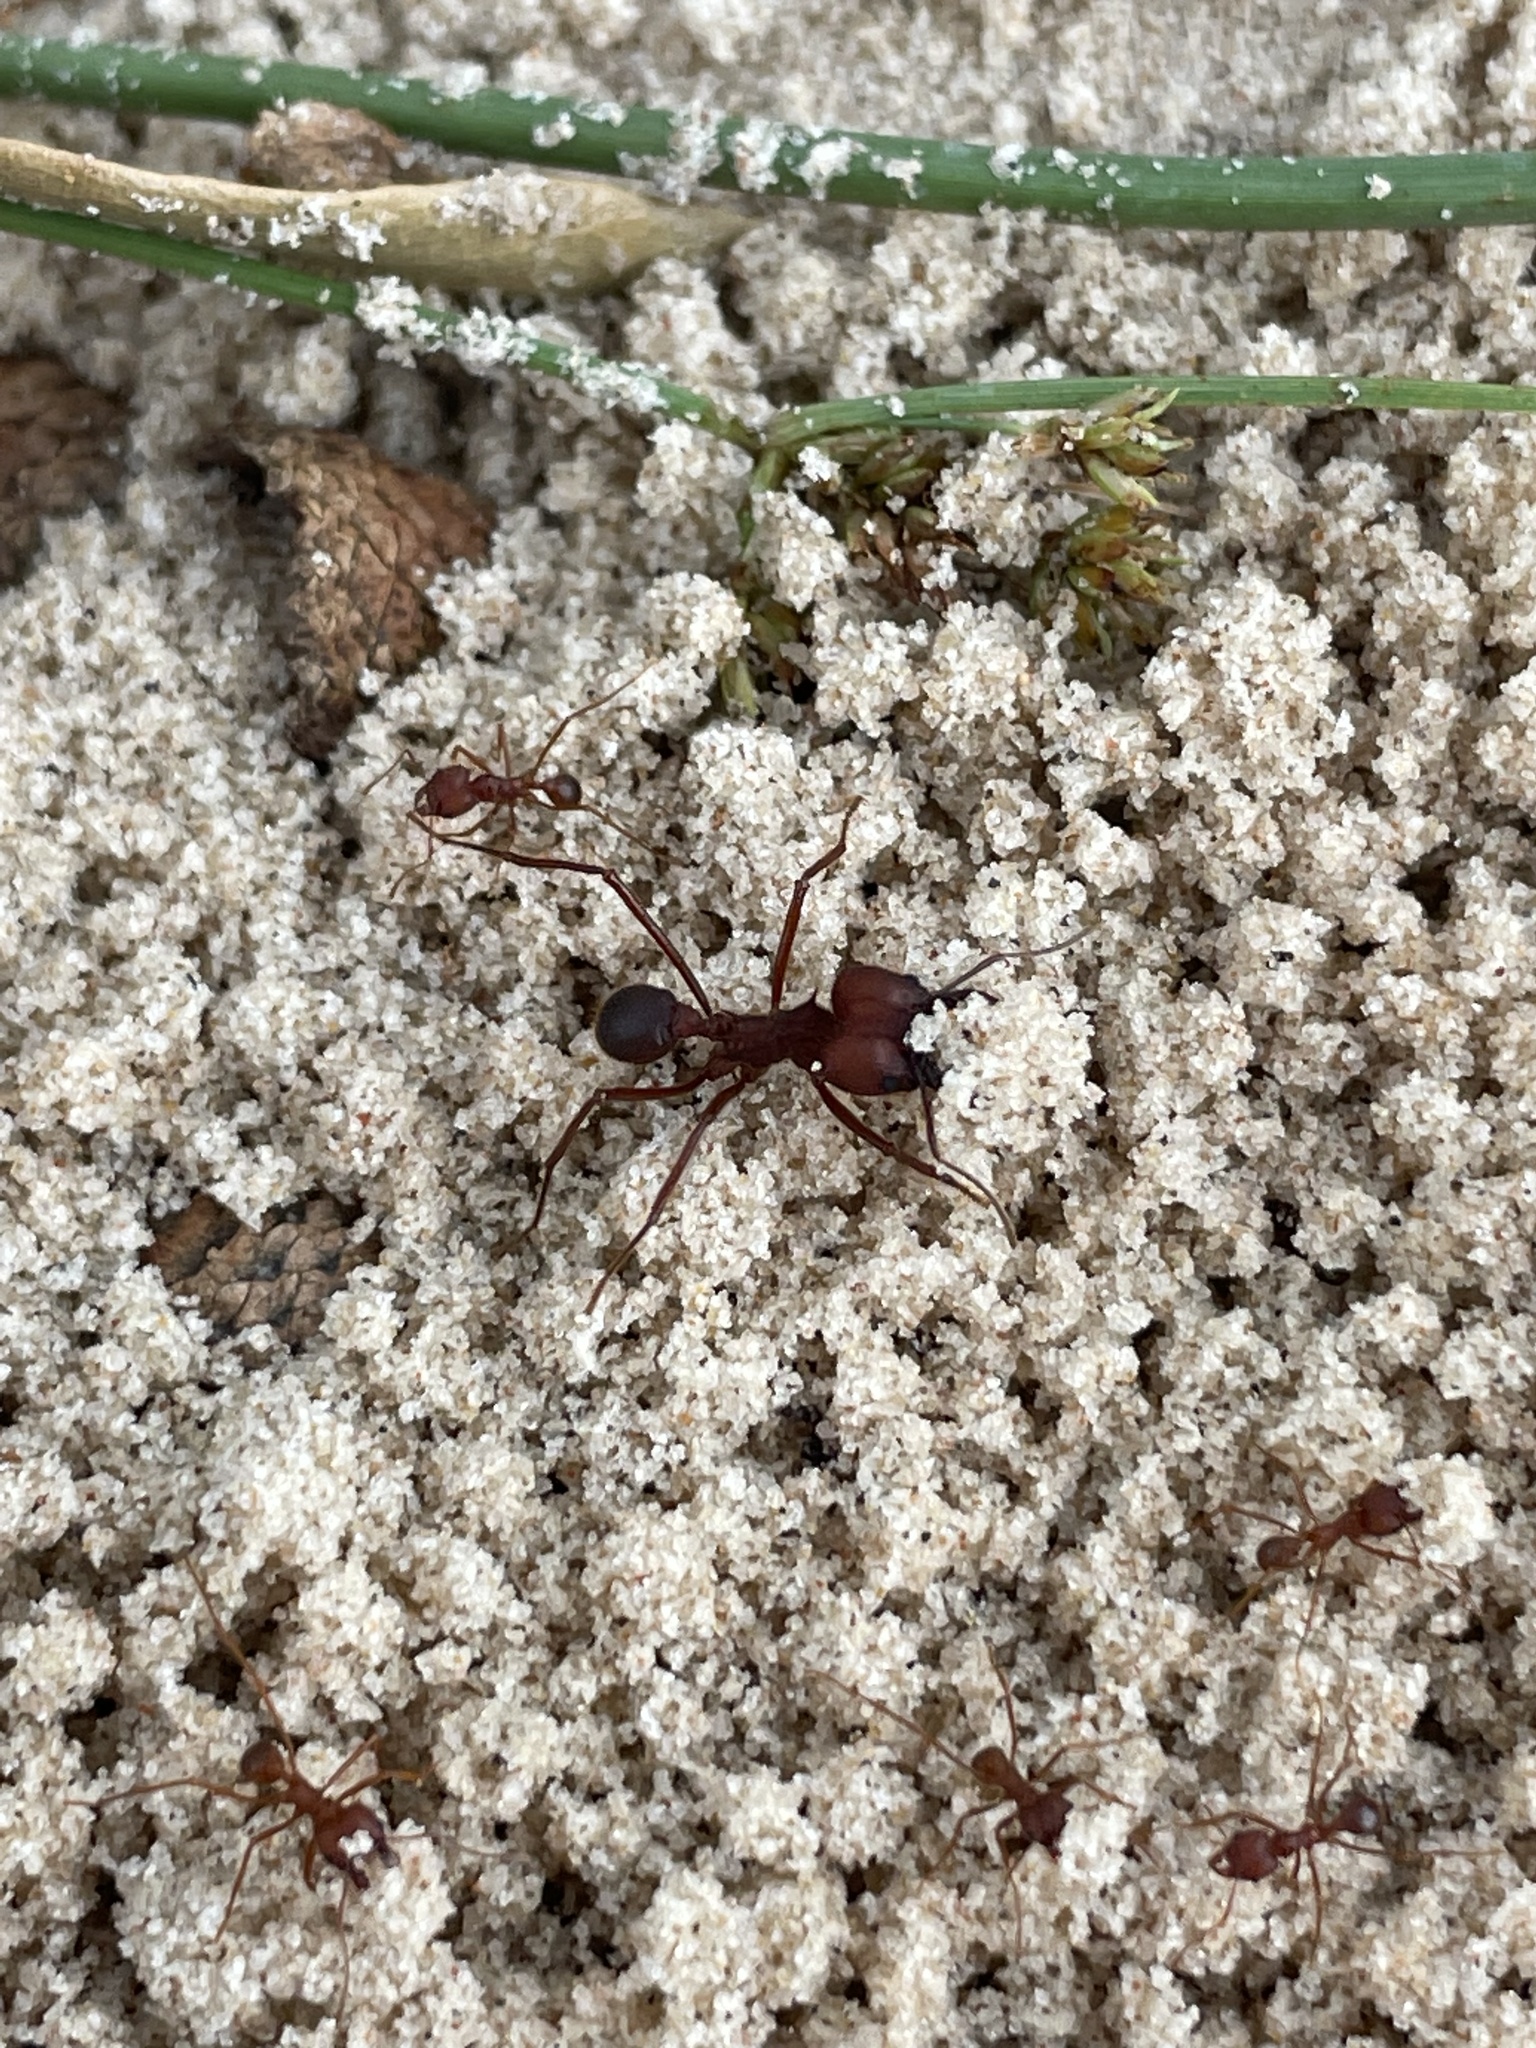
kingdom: Animalia
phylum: Arthropoda
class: Insecta
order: Hymenoptera
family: Formicidae
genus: Atta
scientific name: Atta texana
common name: Texas leafcutting ant
